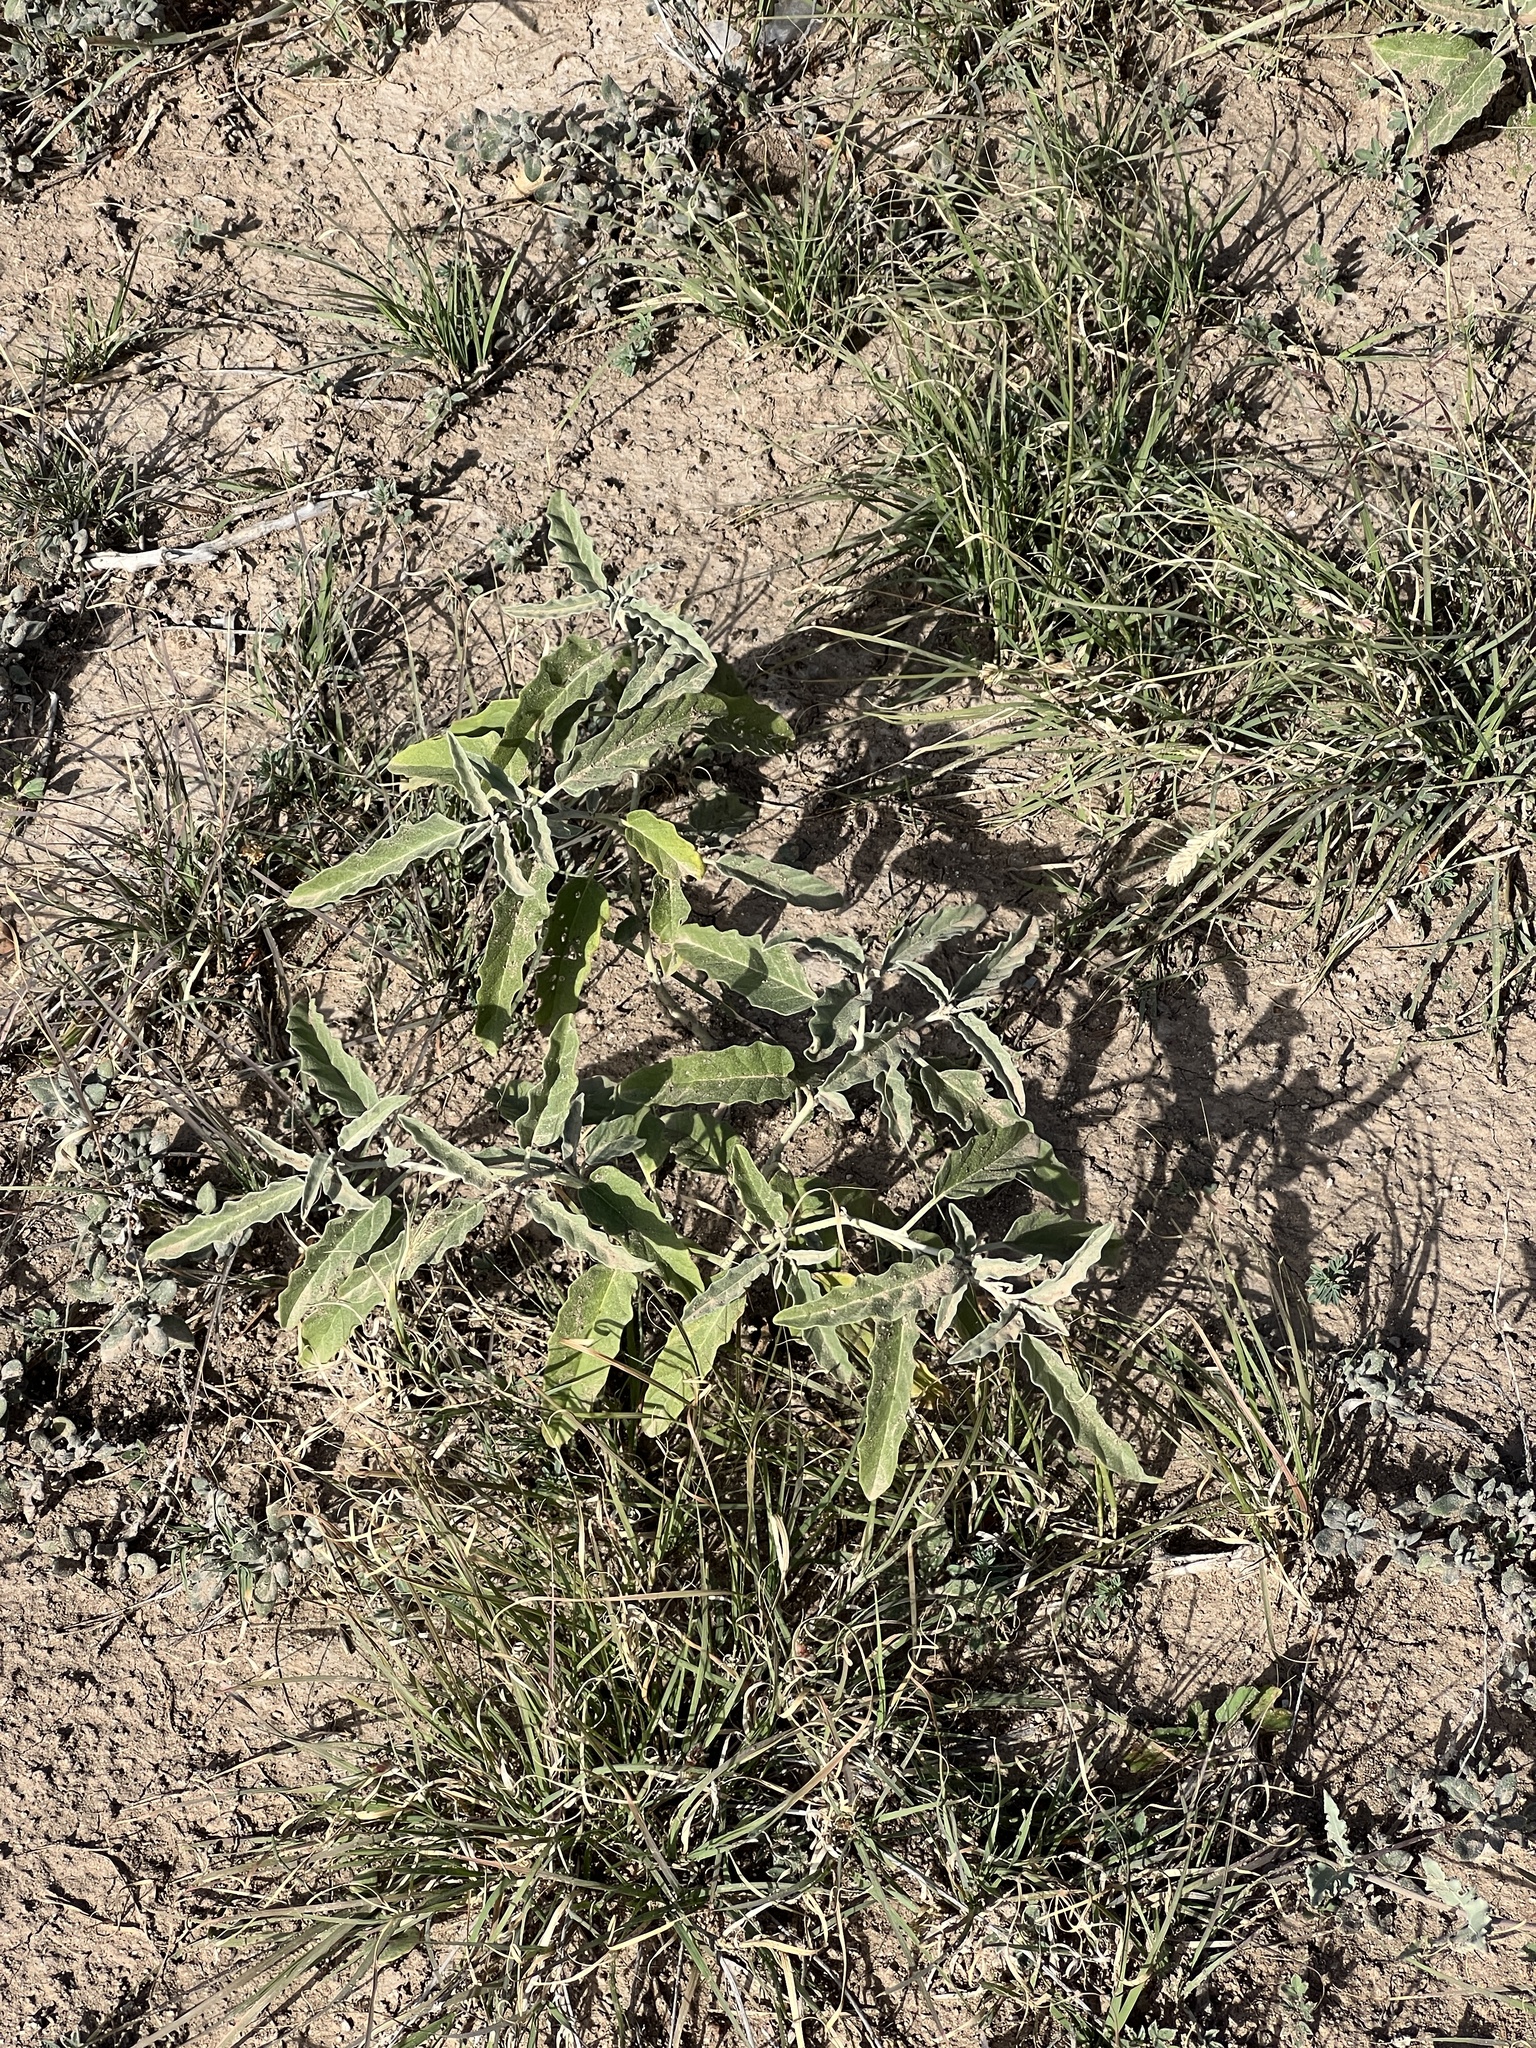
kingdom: Plantae
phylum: Tracheophyta
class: Magnoliopsida
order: Solanales
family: Solanaceae
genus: Solanum
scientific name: Solanum elaeagnifolium
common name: Silverleaf nightshade
